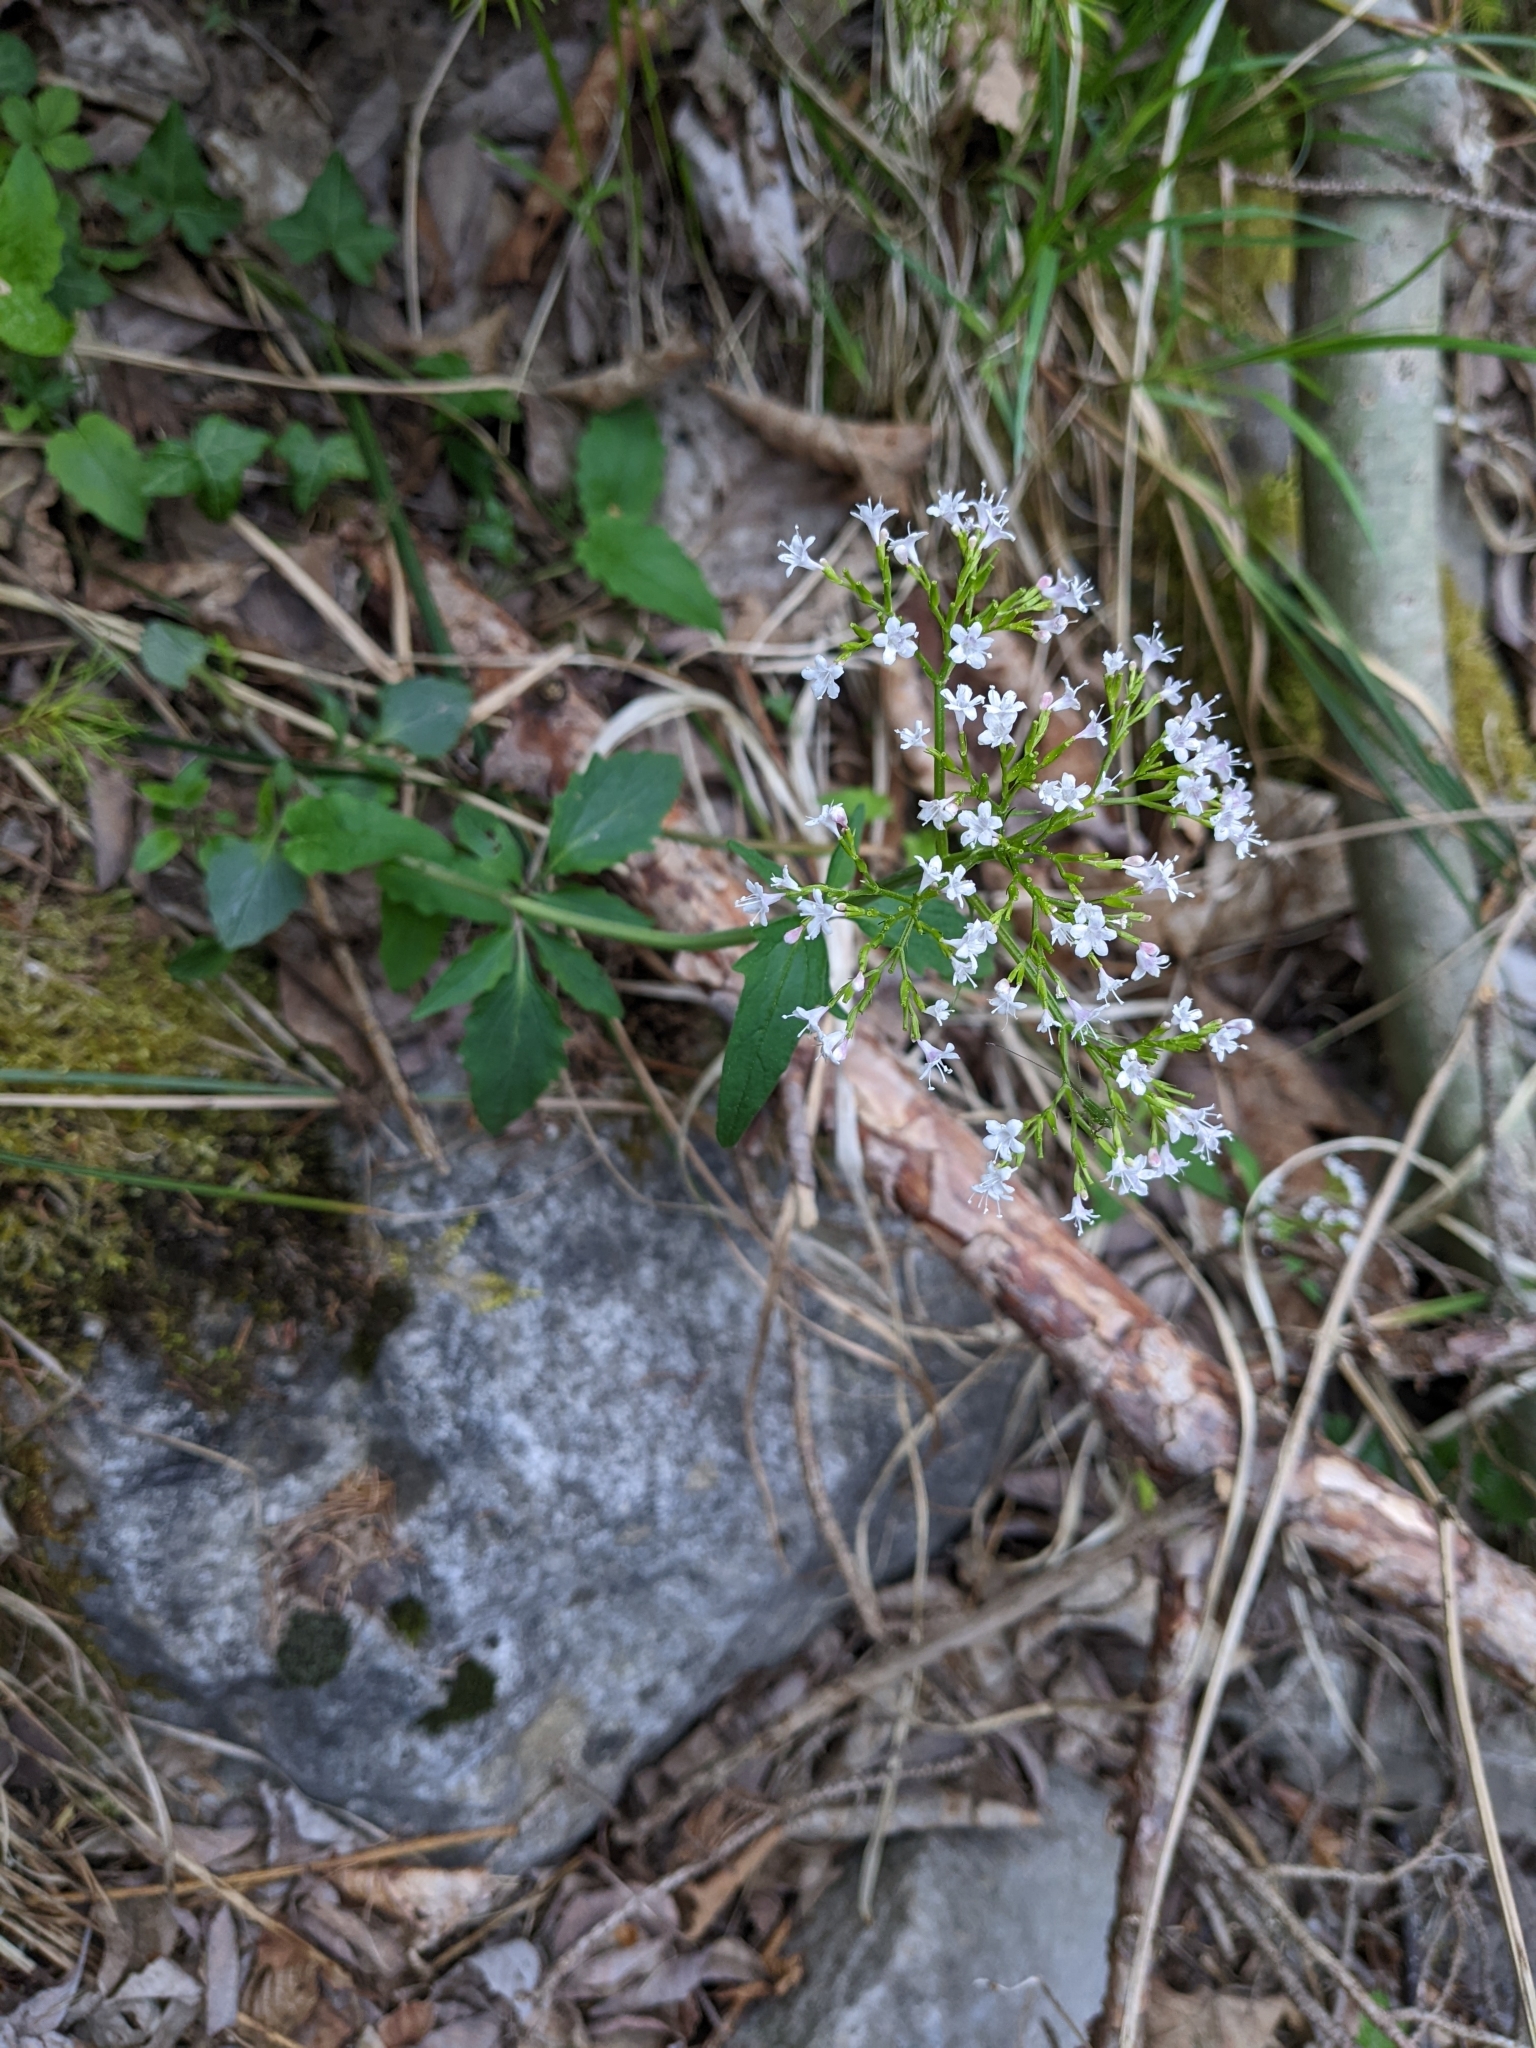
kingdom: Plantae
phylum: Tracheophyta
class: Magnoliopsida
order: Dipsacales
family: Caprifoliaceae
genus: Valeriana
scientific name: Valeriana tripteris
